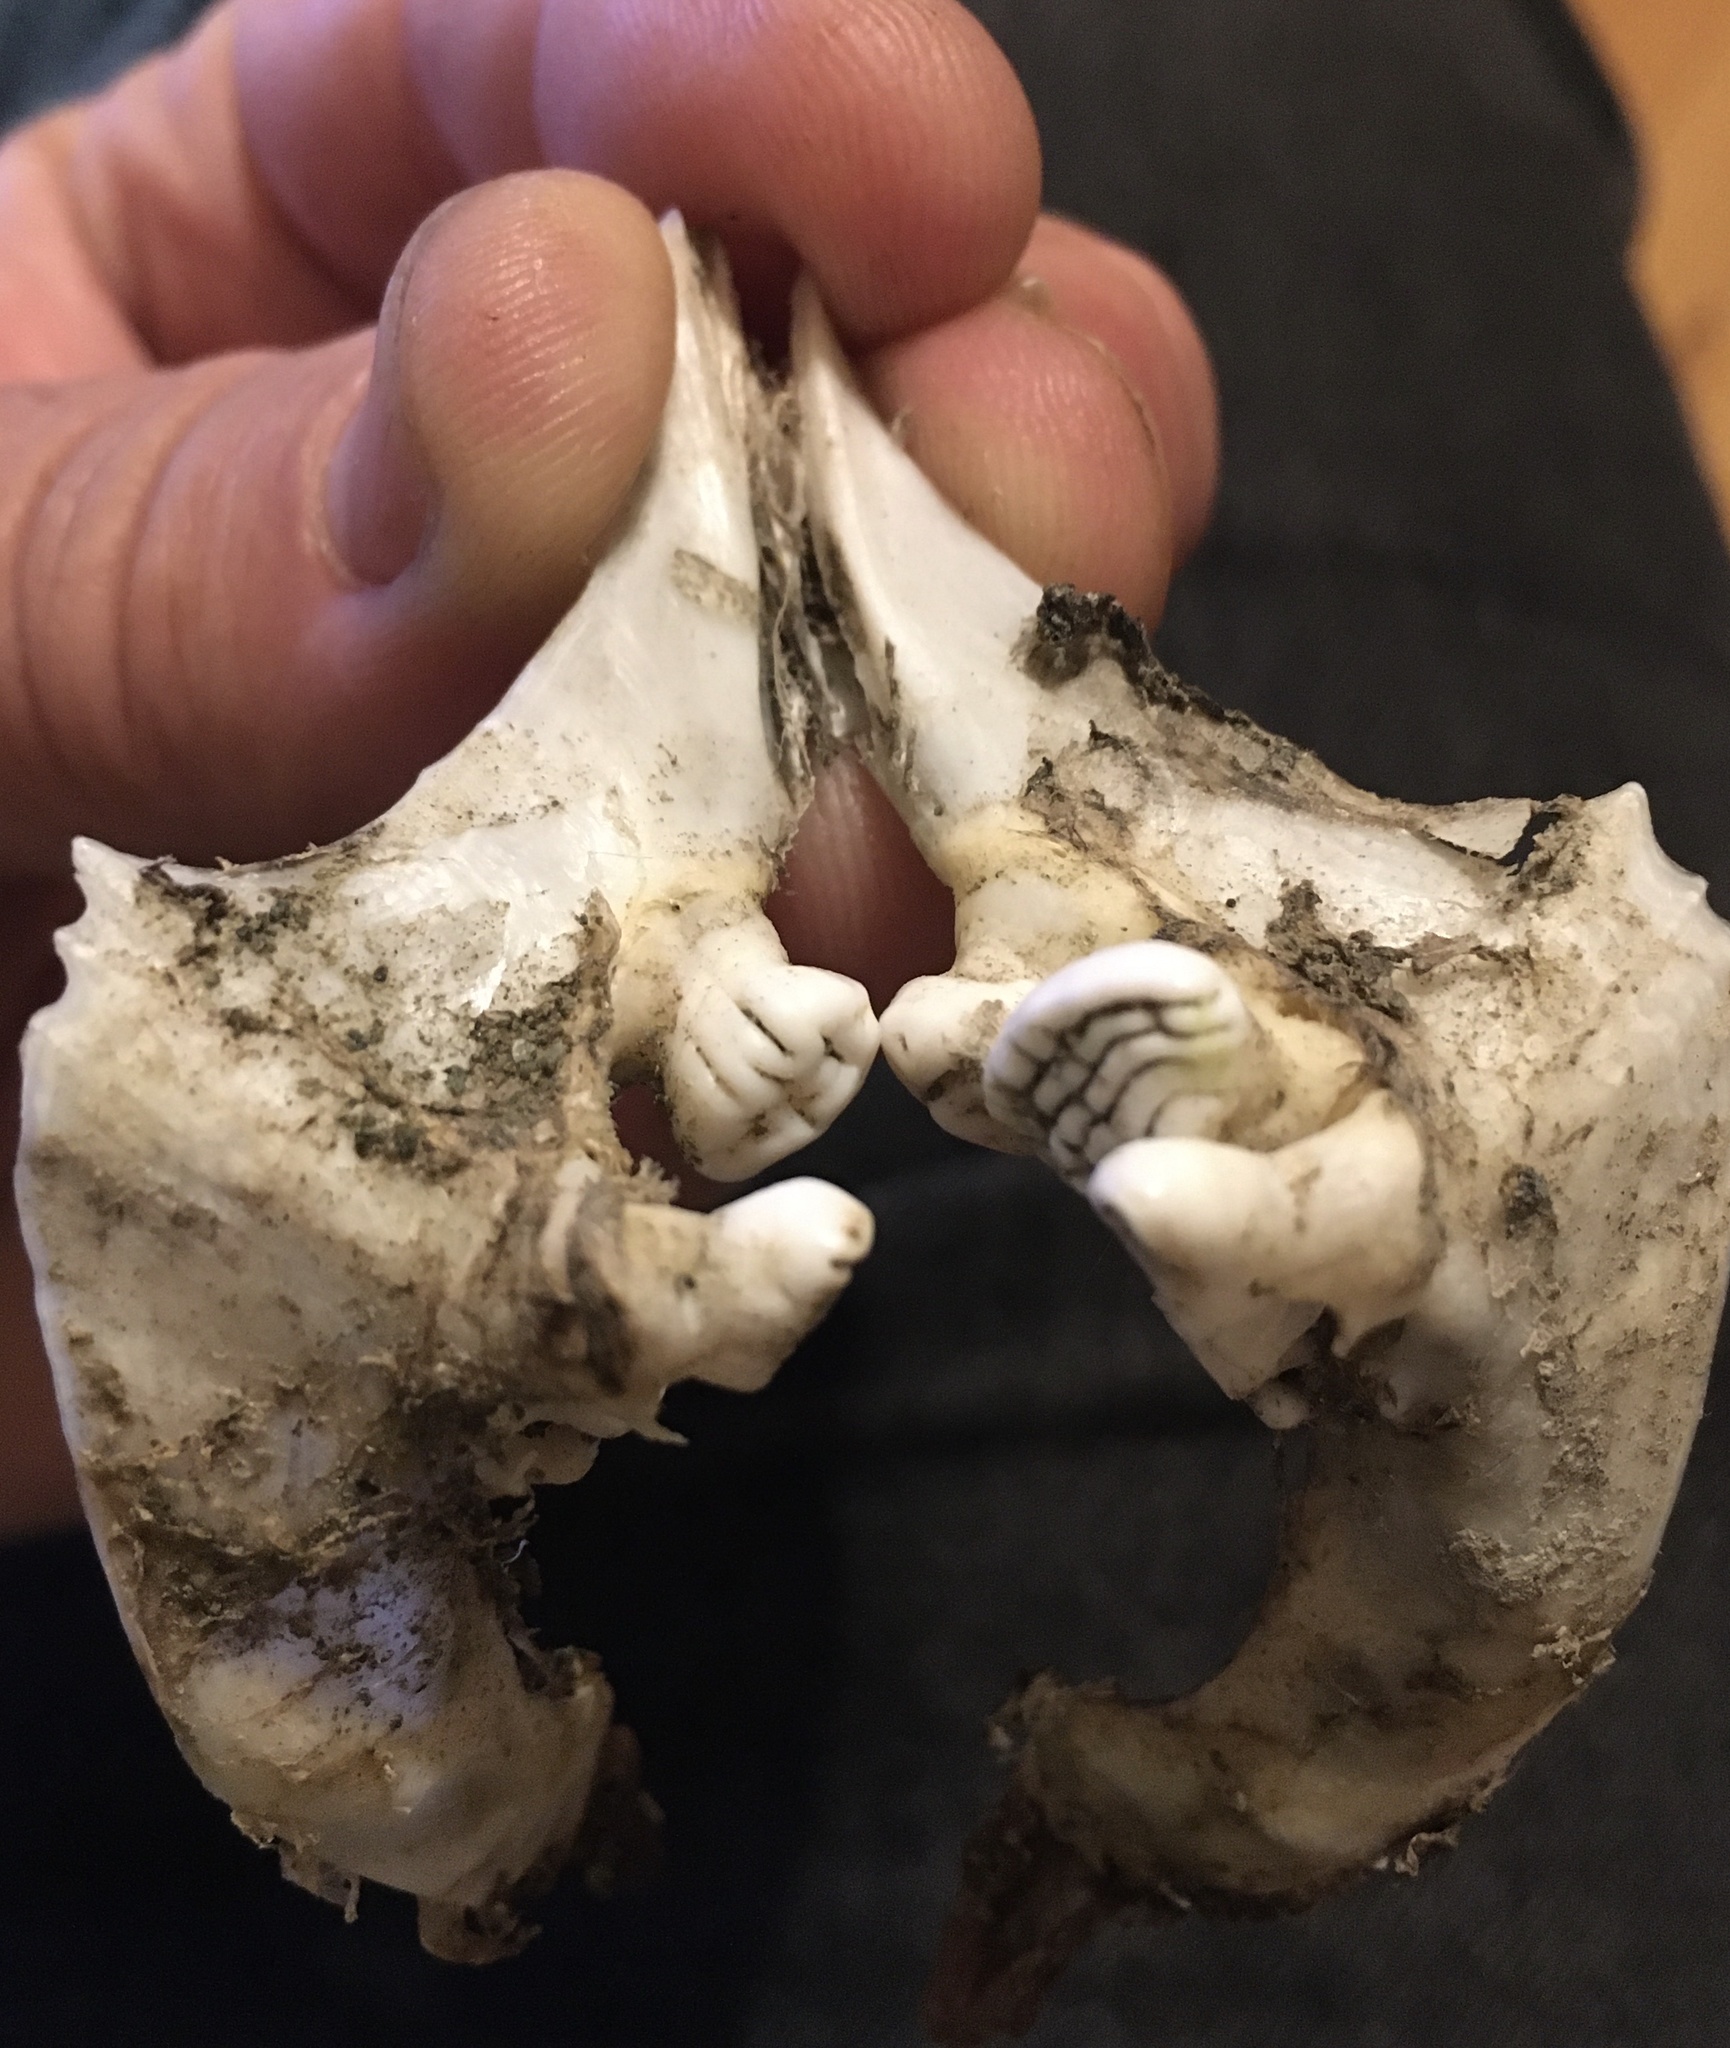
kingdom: Animalia
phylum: Chordata
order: Cypriniformes
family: Cyprinidae
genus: Cyprinus
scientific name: Cyprinus carpio
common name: Common carp
